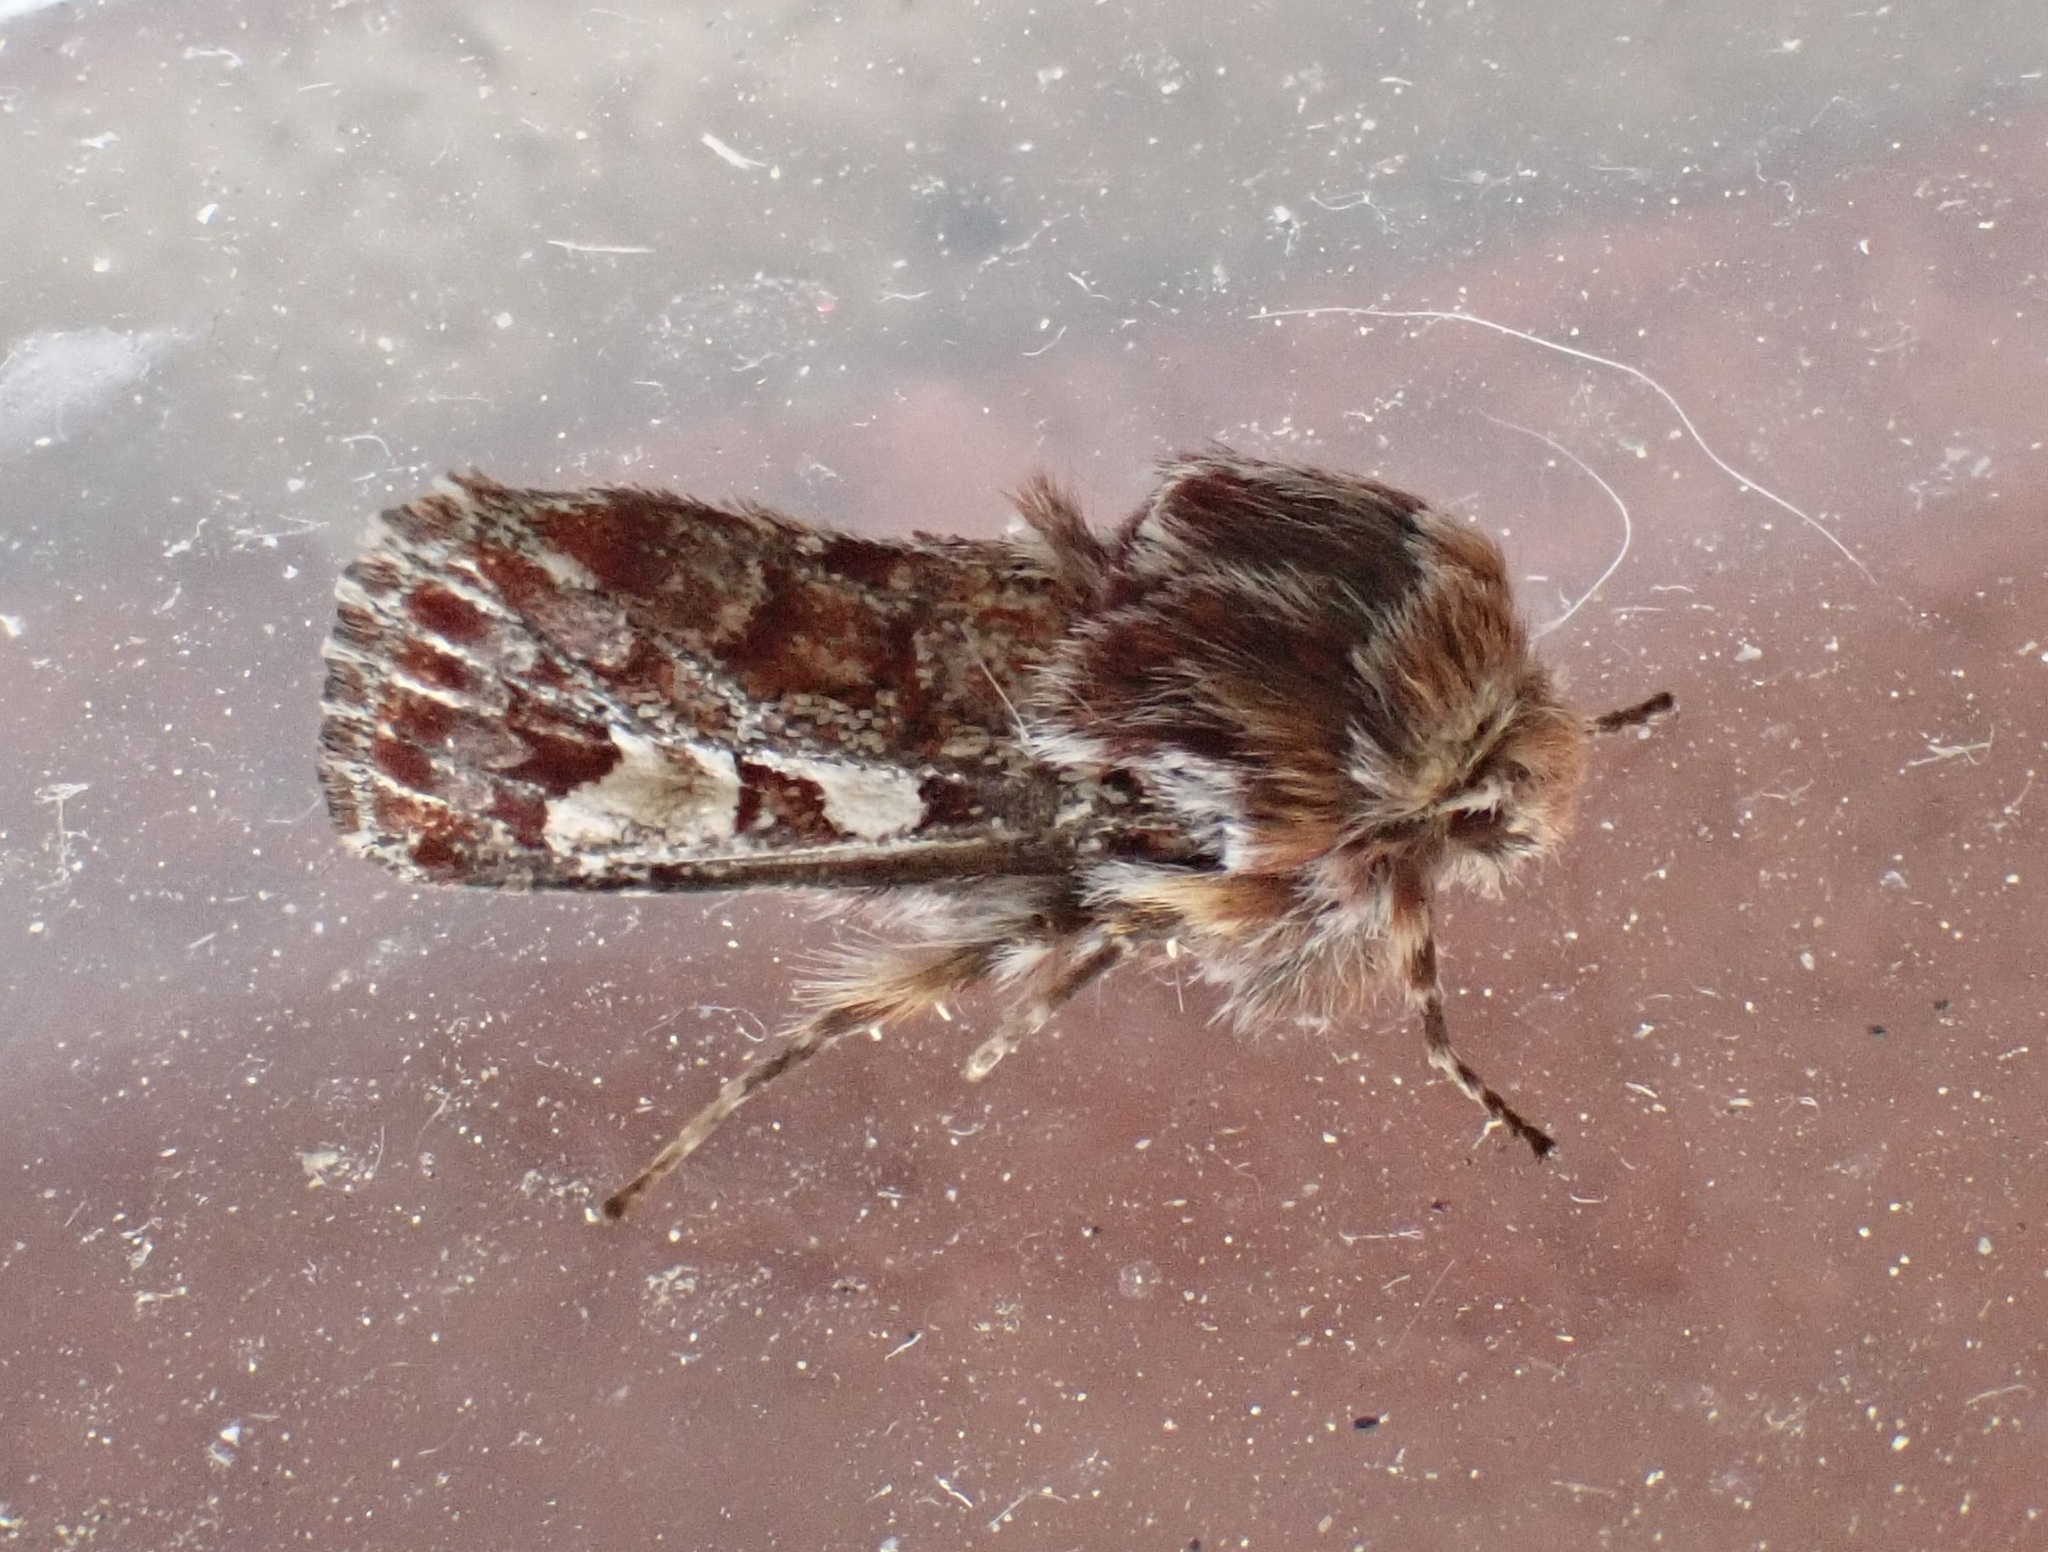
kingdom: Animalia
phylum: Arthropoda
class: Insecta
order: Lepidoptera
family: Noctuidae
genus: Panolis
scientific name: Panolis flammea
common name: Pine beauty
